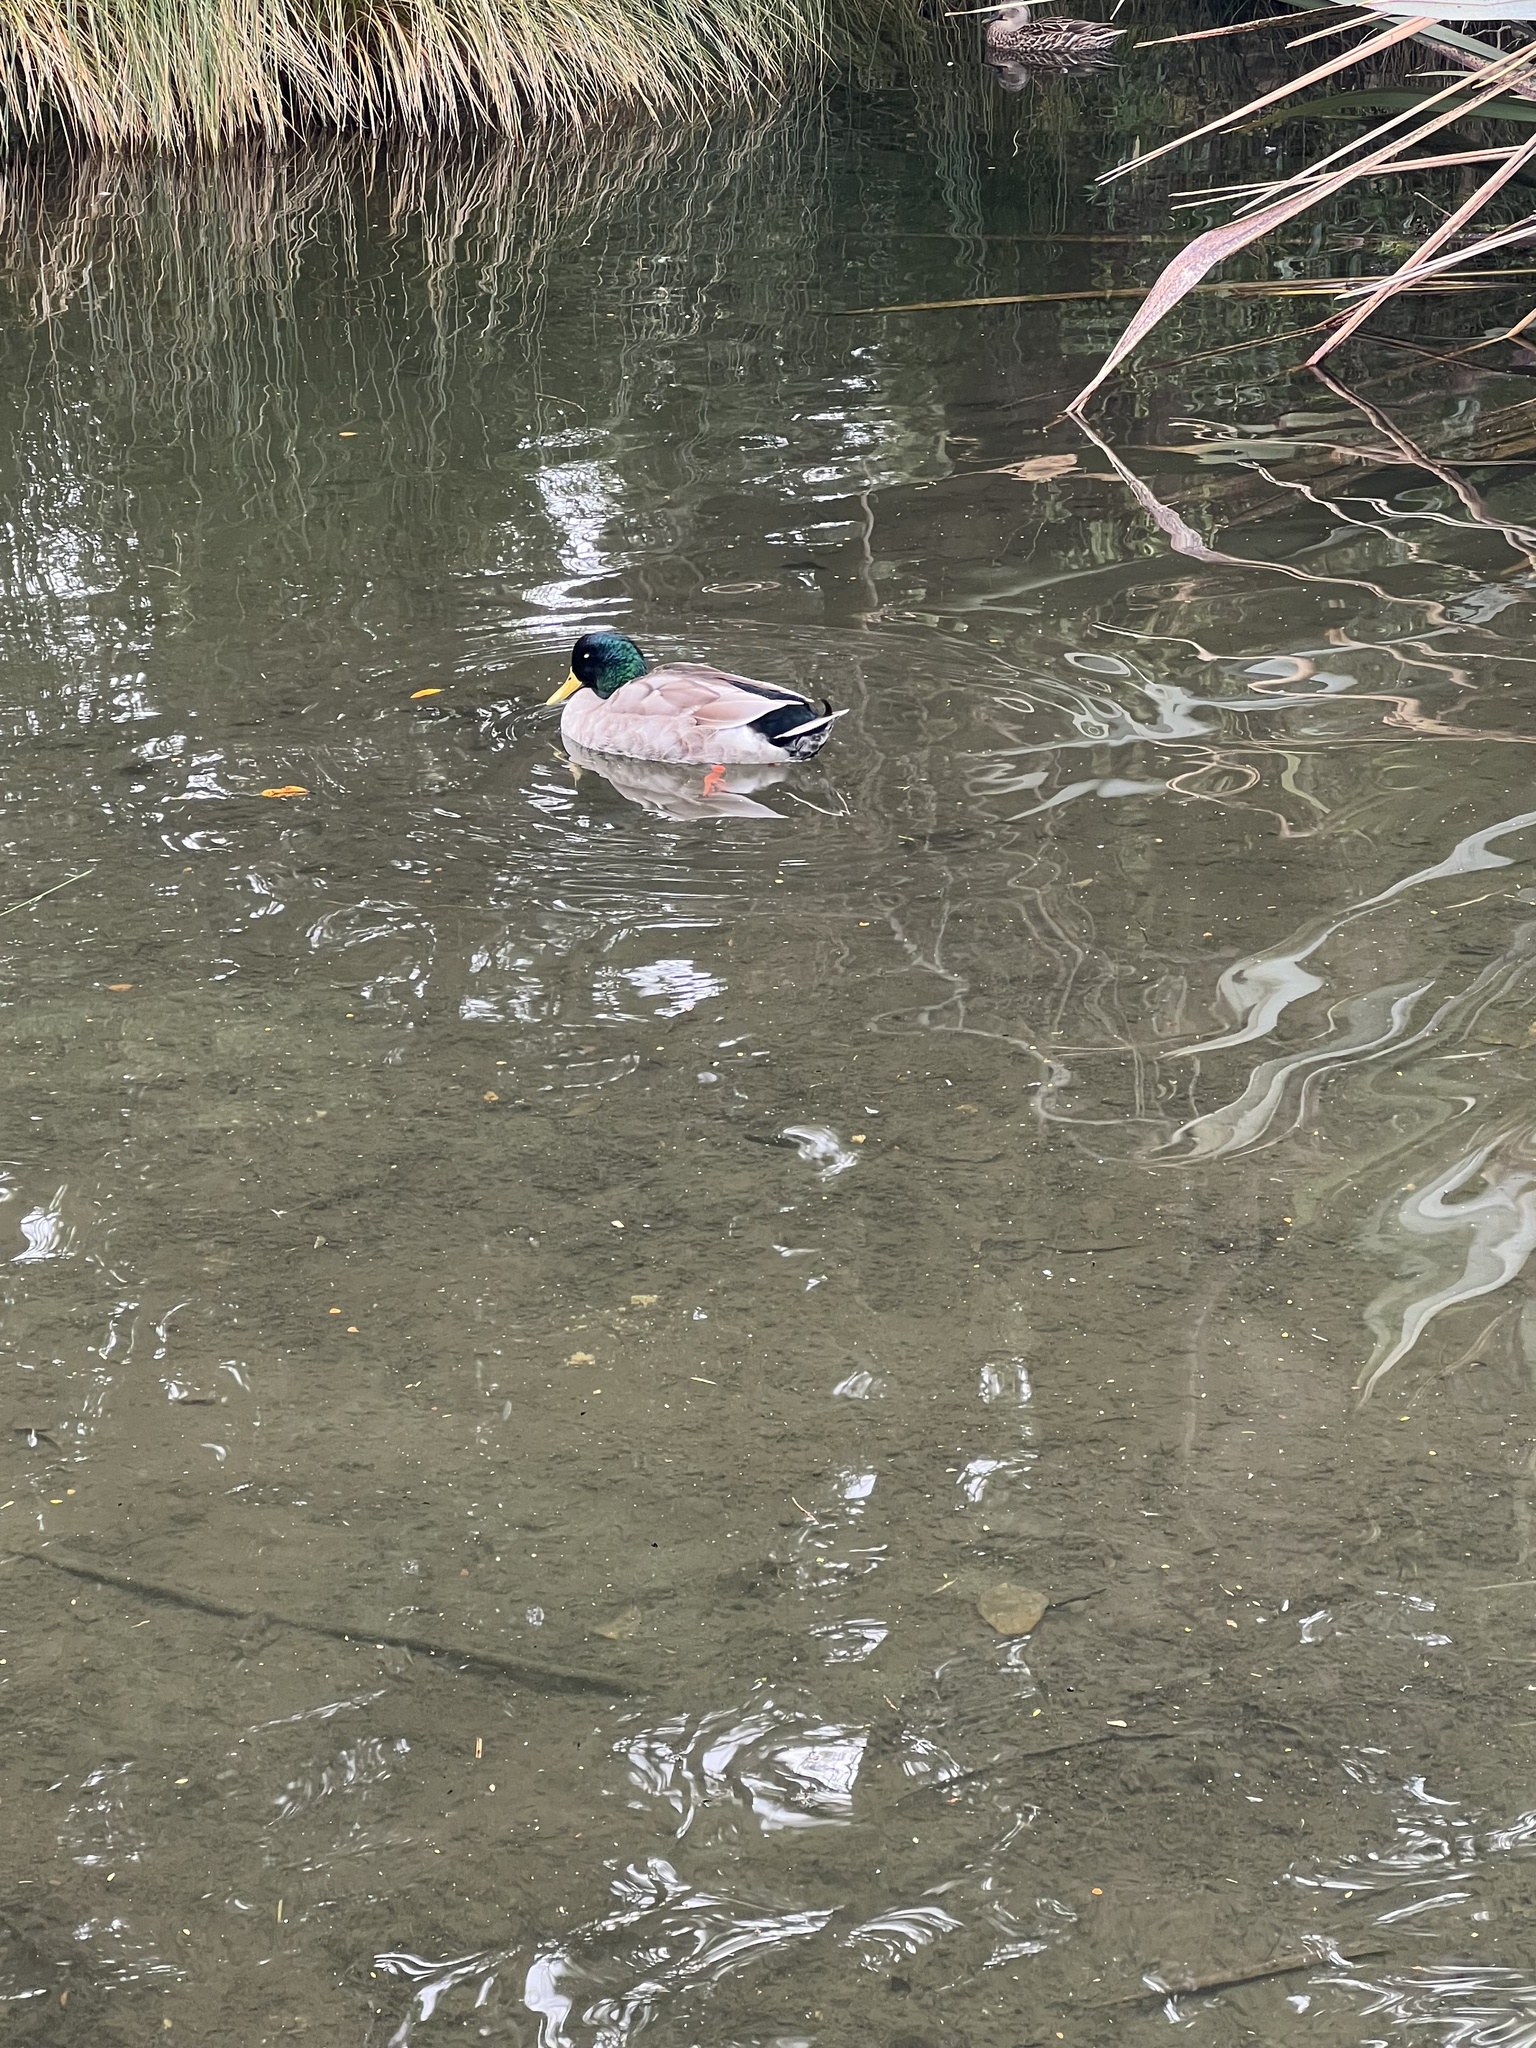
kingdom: Animalia
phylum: Chordata
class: Aves
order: Anseriformes
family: Anatidae
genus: Anas
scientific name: Anas platyrhynchos
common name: Mallard
